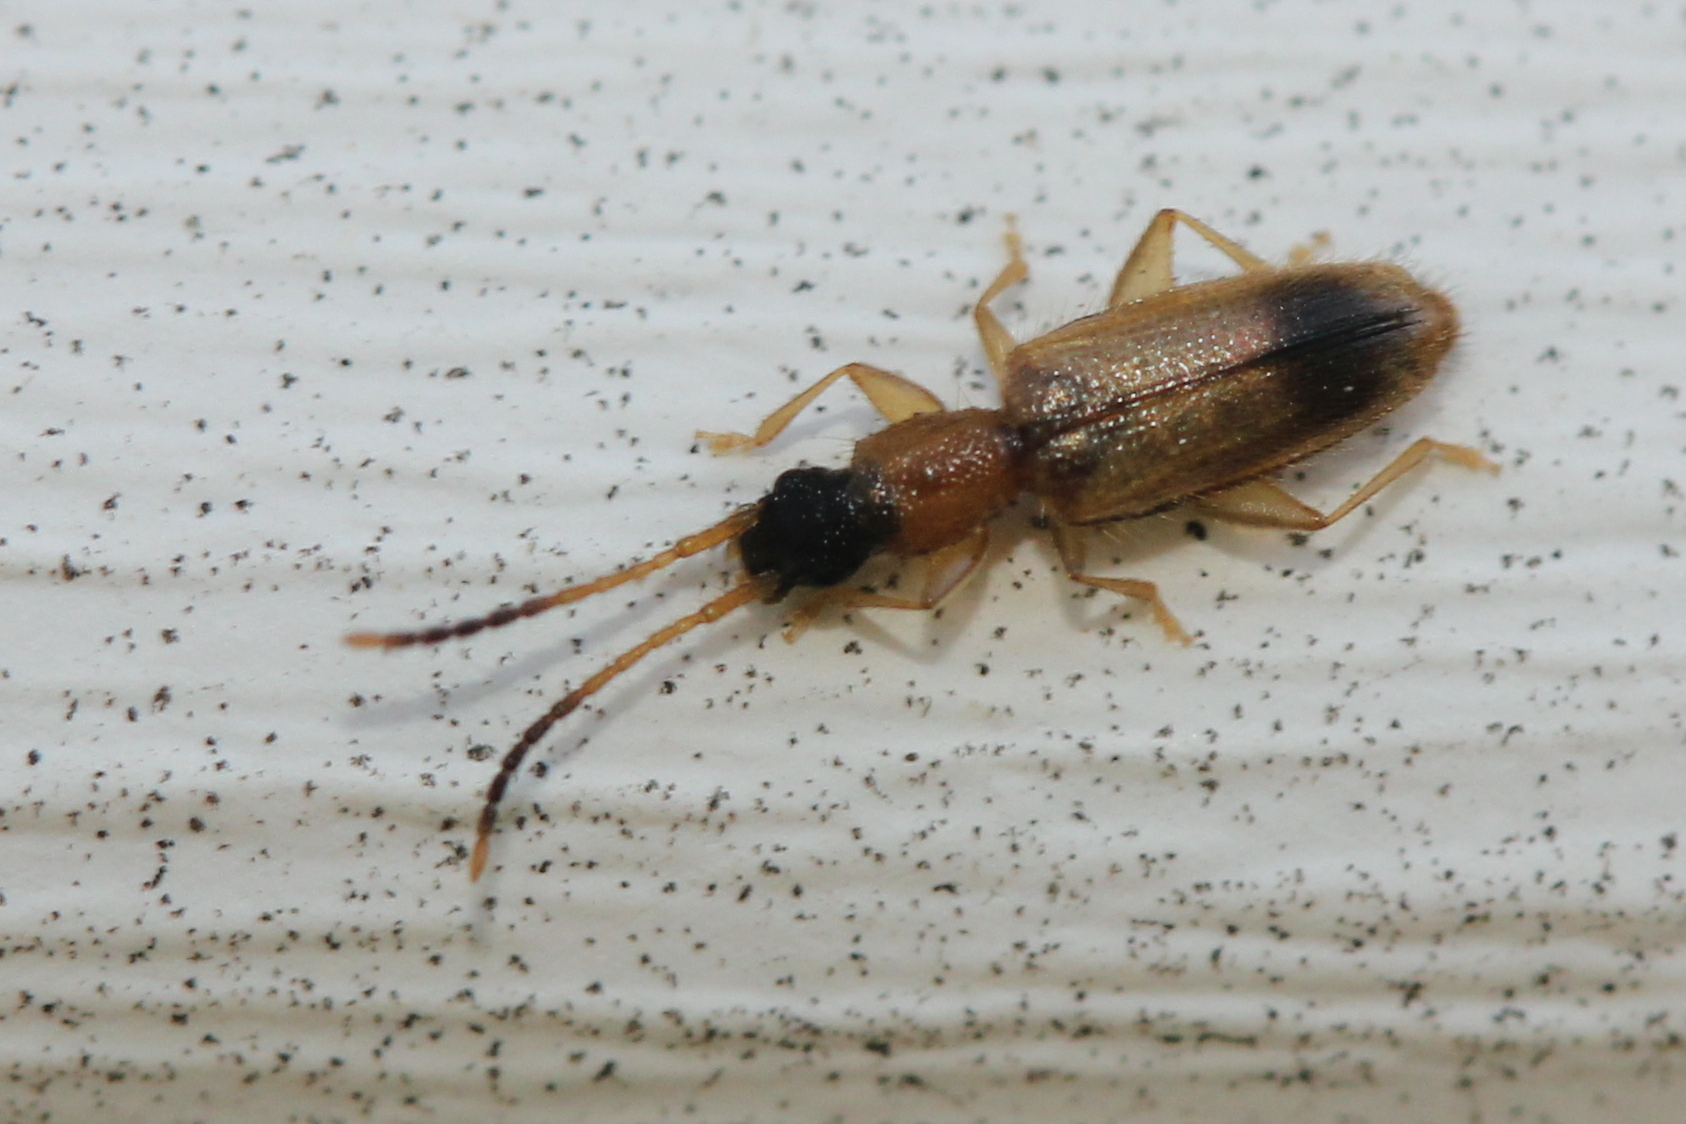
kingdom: Animalia
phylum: Arthropoda
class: Insecta
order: Coleoptera
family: Silvanidae
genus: Telephanus
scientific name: Telephanus velox
